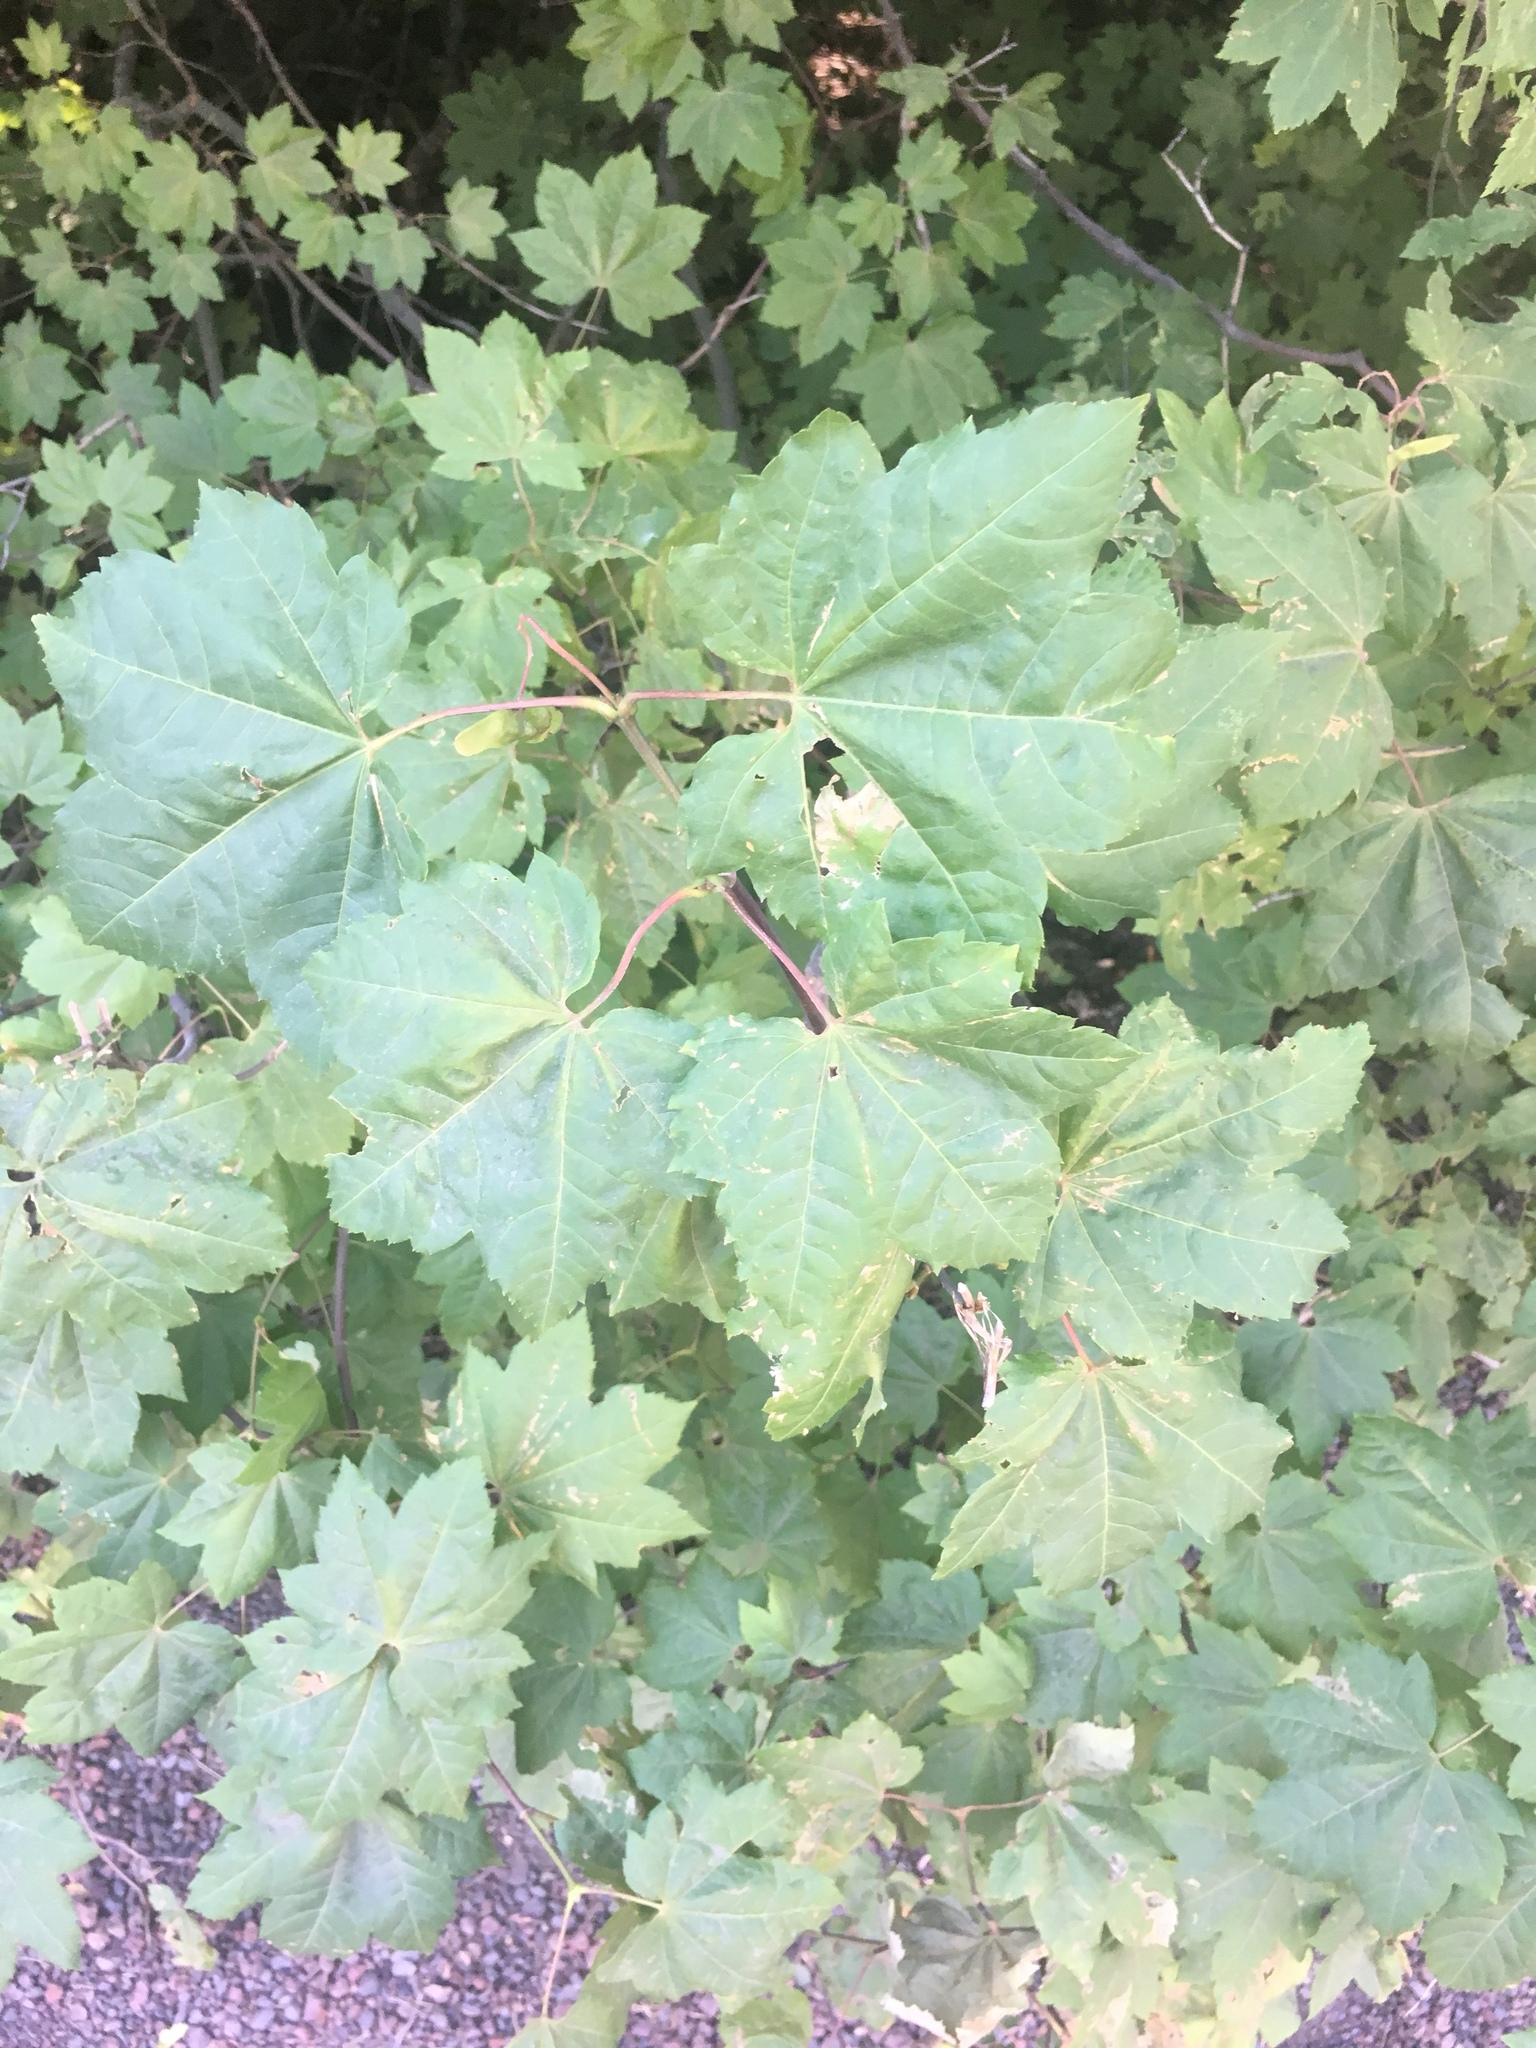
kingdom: Plantae
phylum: Tracheophyta
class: Magnoliopsida
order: Sapindales
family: Sapindaceae
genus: Acer
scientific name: Acer circinatum
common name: Vine maple
